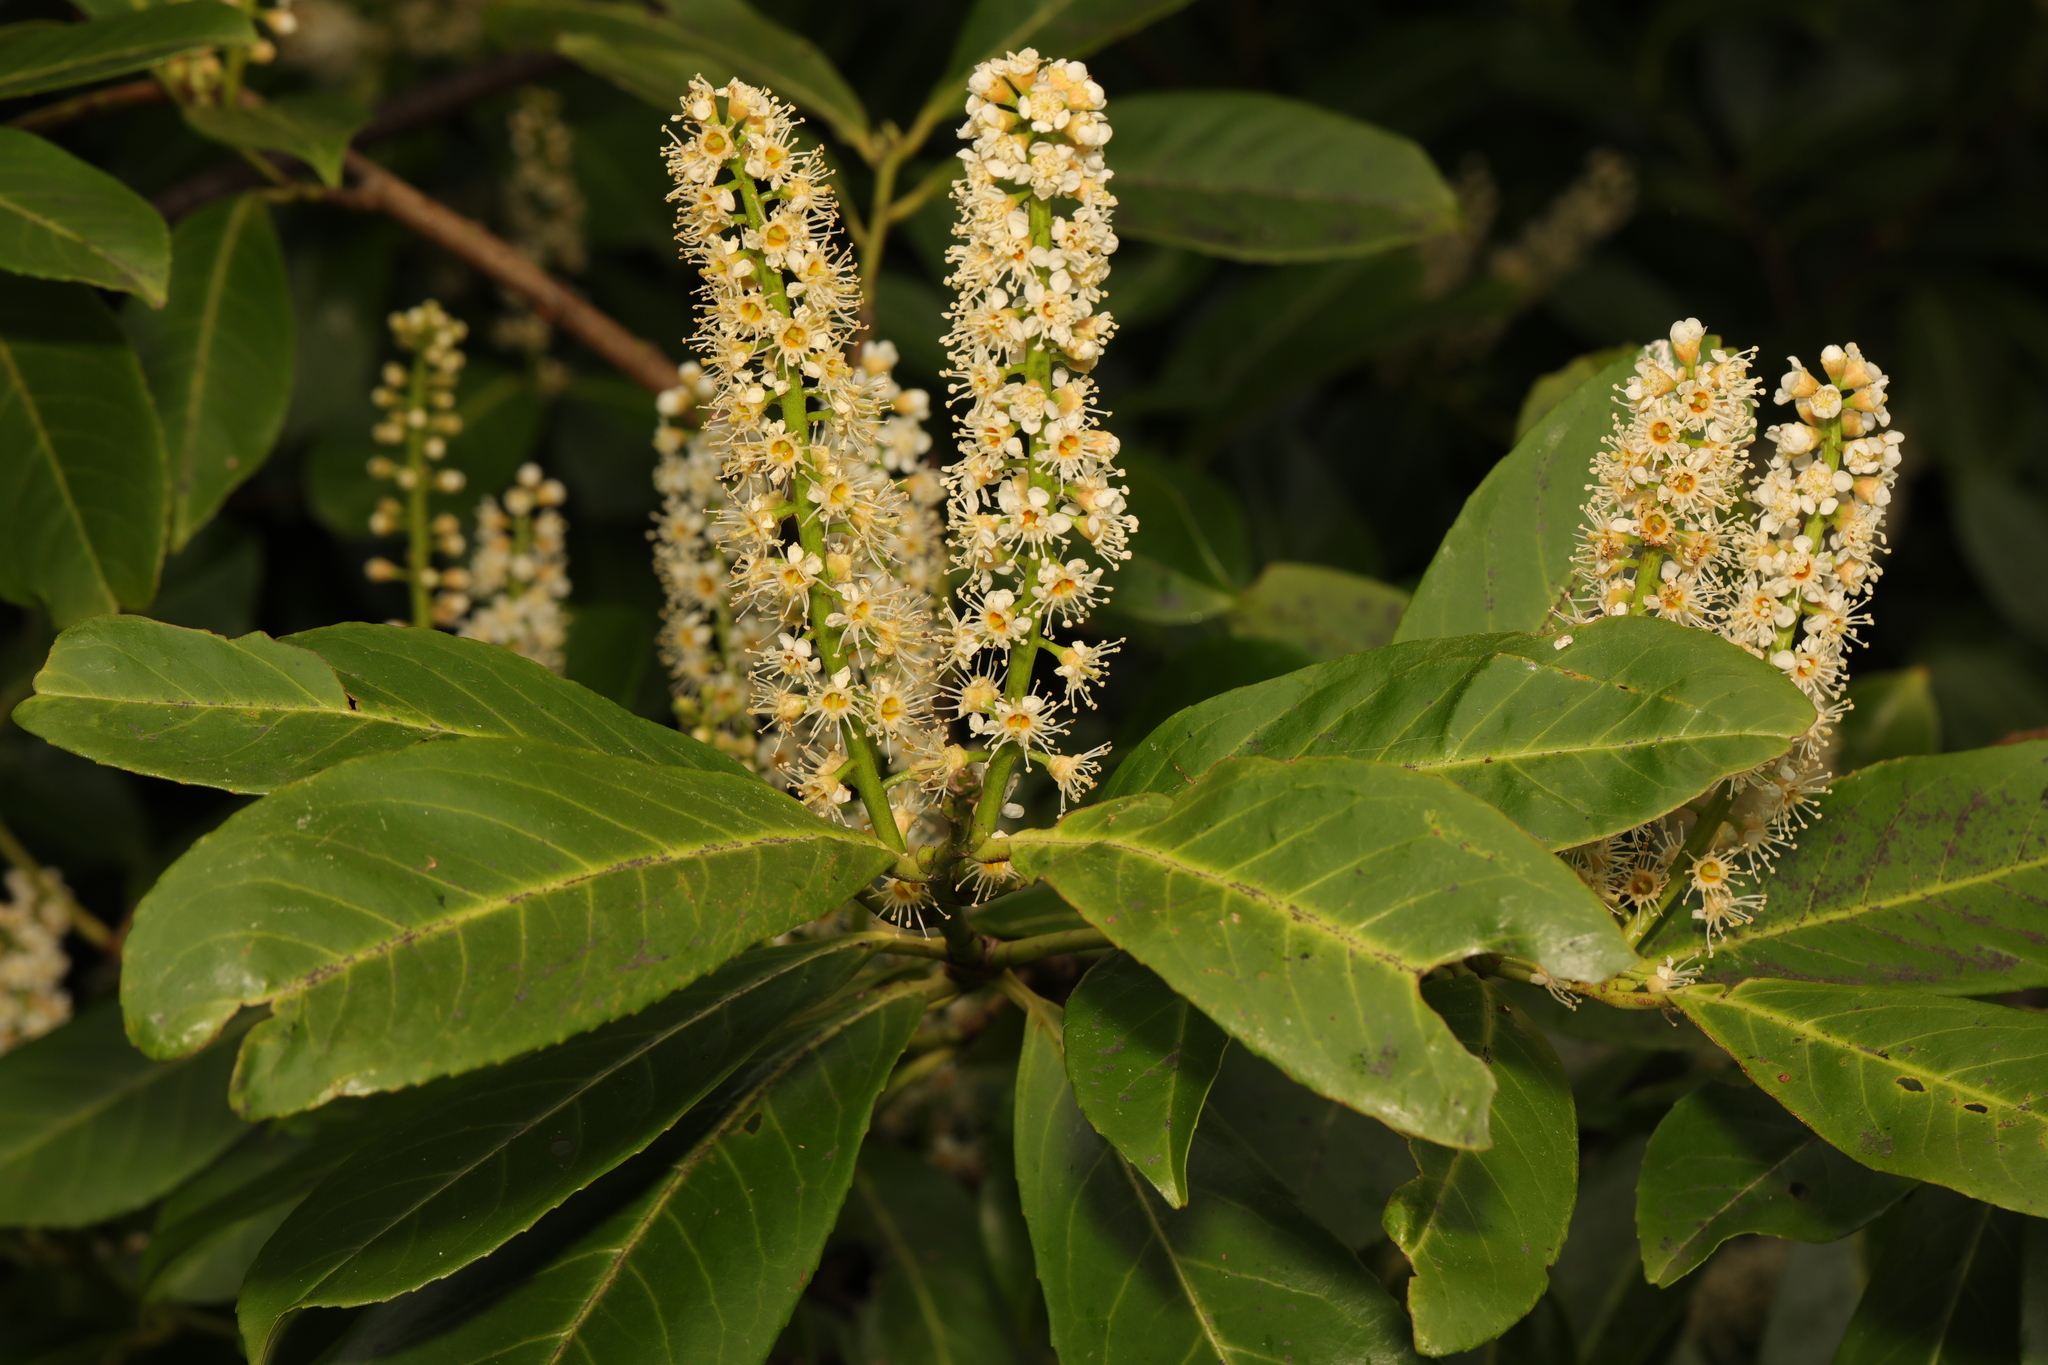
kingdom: Plantae
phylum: Tracheophyta
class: Magnoliopsida
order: Rosales
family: Rosaceae
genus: Prunus
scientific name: Prunus laurocerasus
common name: Cherry laurel
